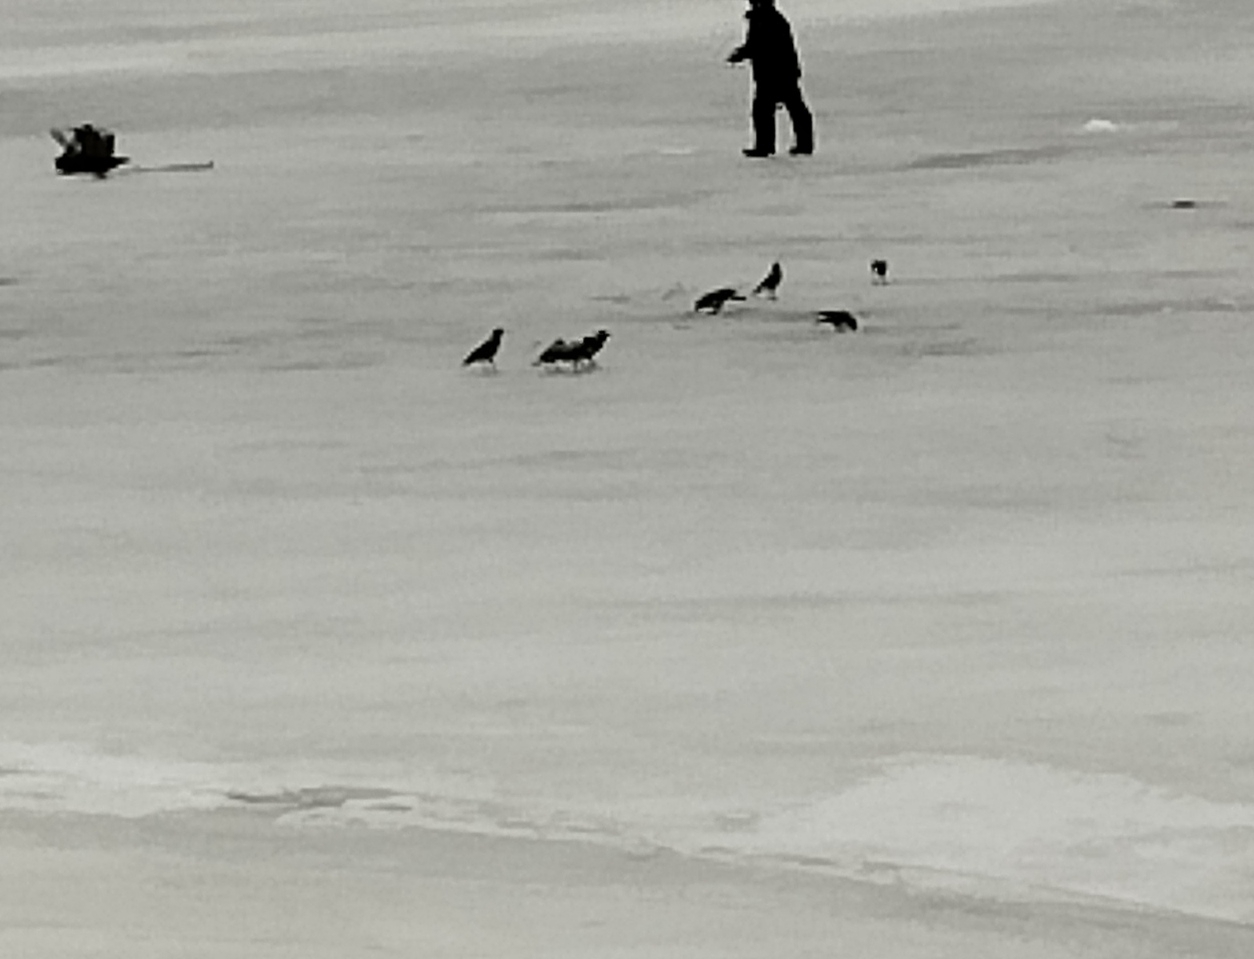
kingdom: Animalia
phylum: Chordata
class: Aves
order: Passeriformes
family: Corvidae
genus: Corvus
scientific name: Corvus cornix
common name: Hooded crow
